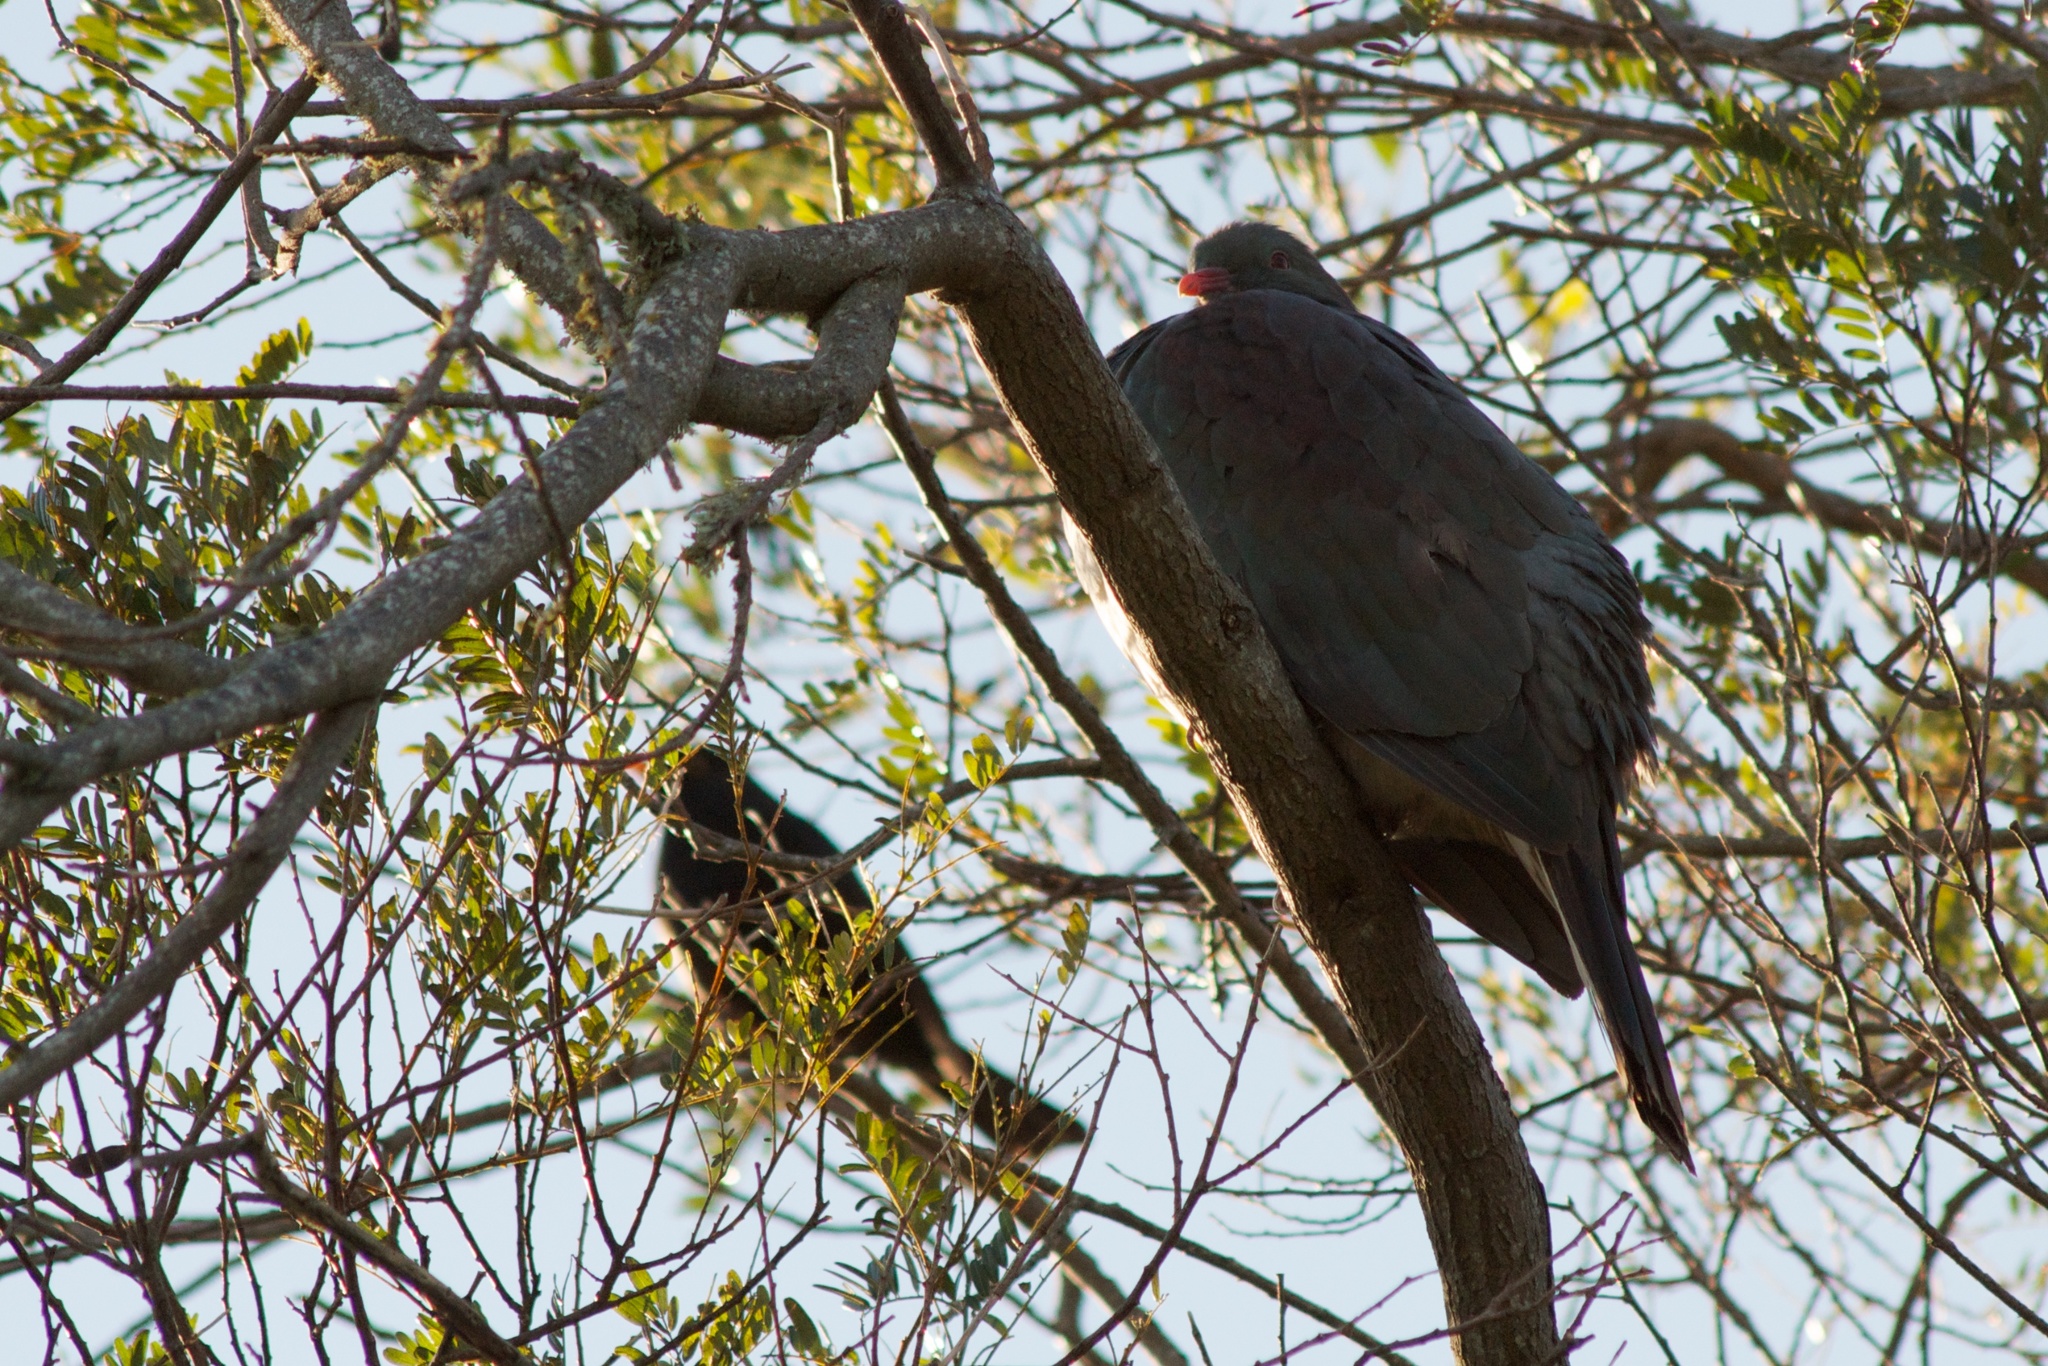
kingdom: Animalia
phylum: Chordata
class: Aves
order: Columbiformes
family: Columbidae
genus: Hemiphaga
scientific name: Hemiphaga novaeseelandiae
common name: New zealand pigeon
